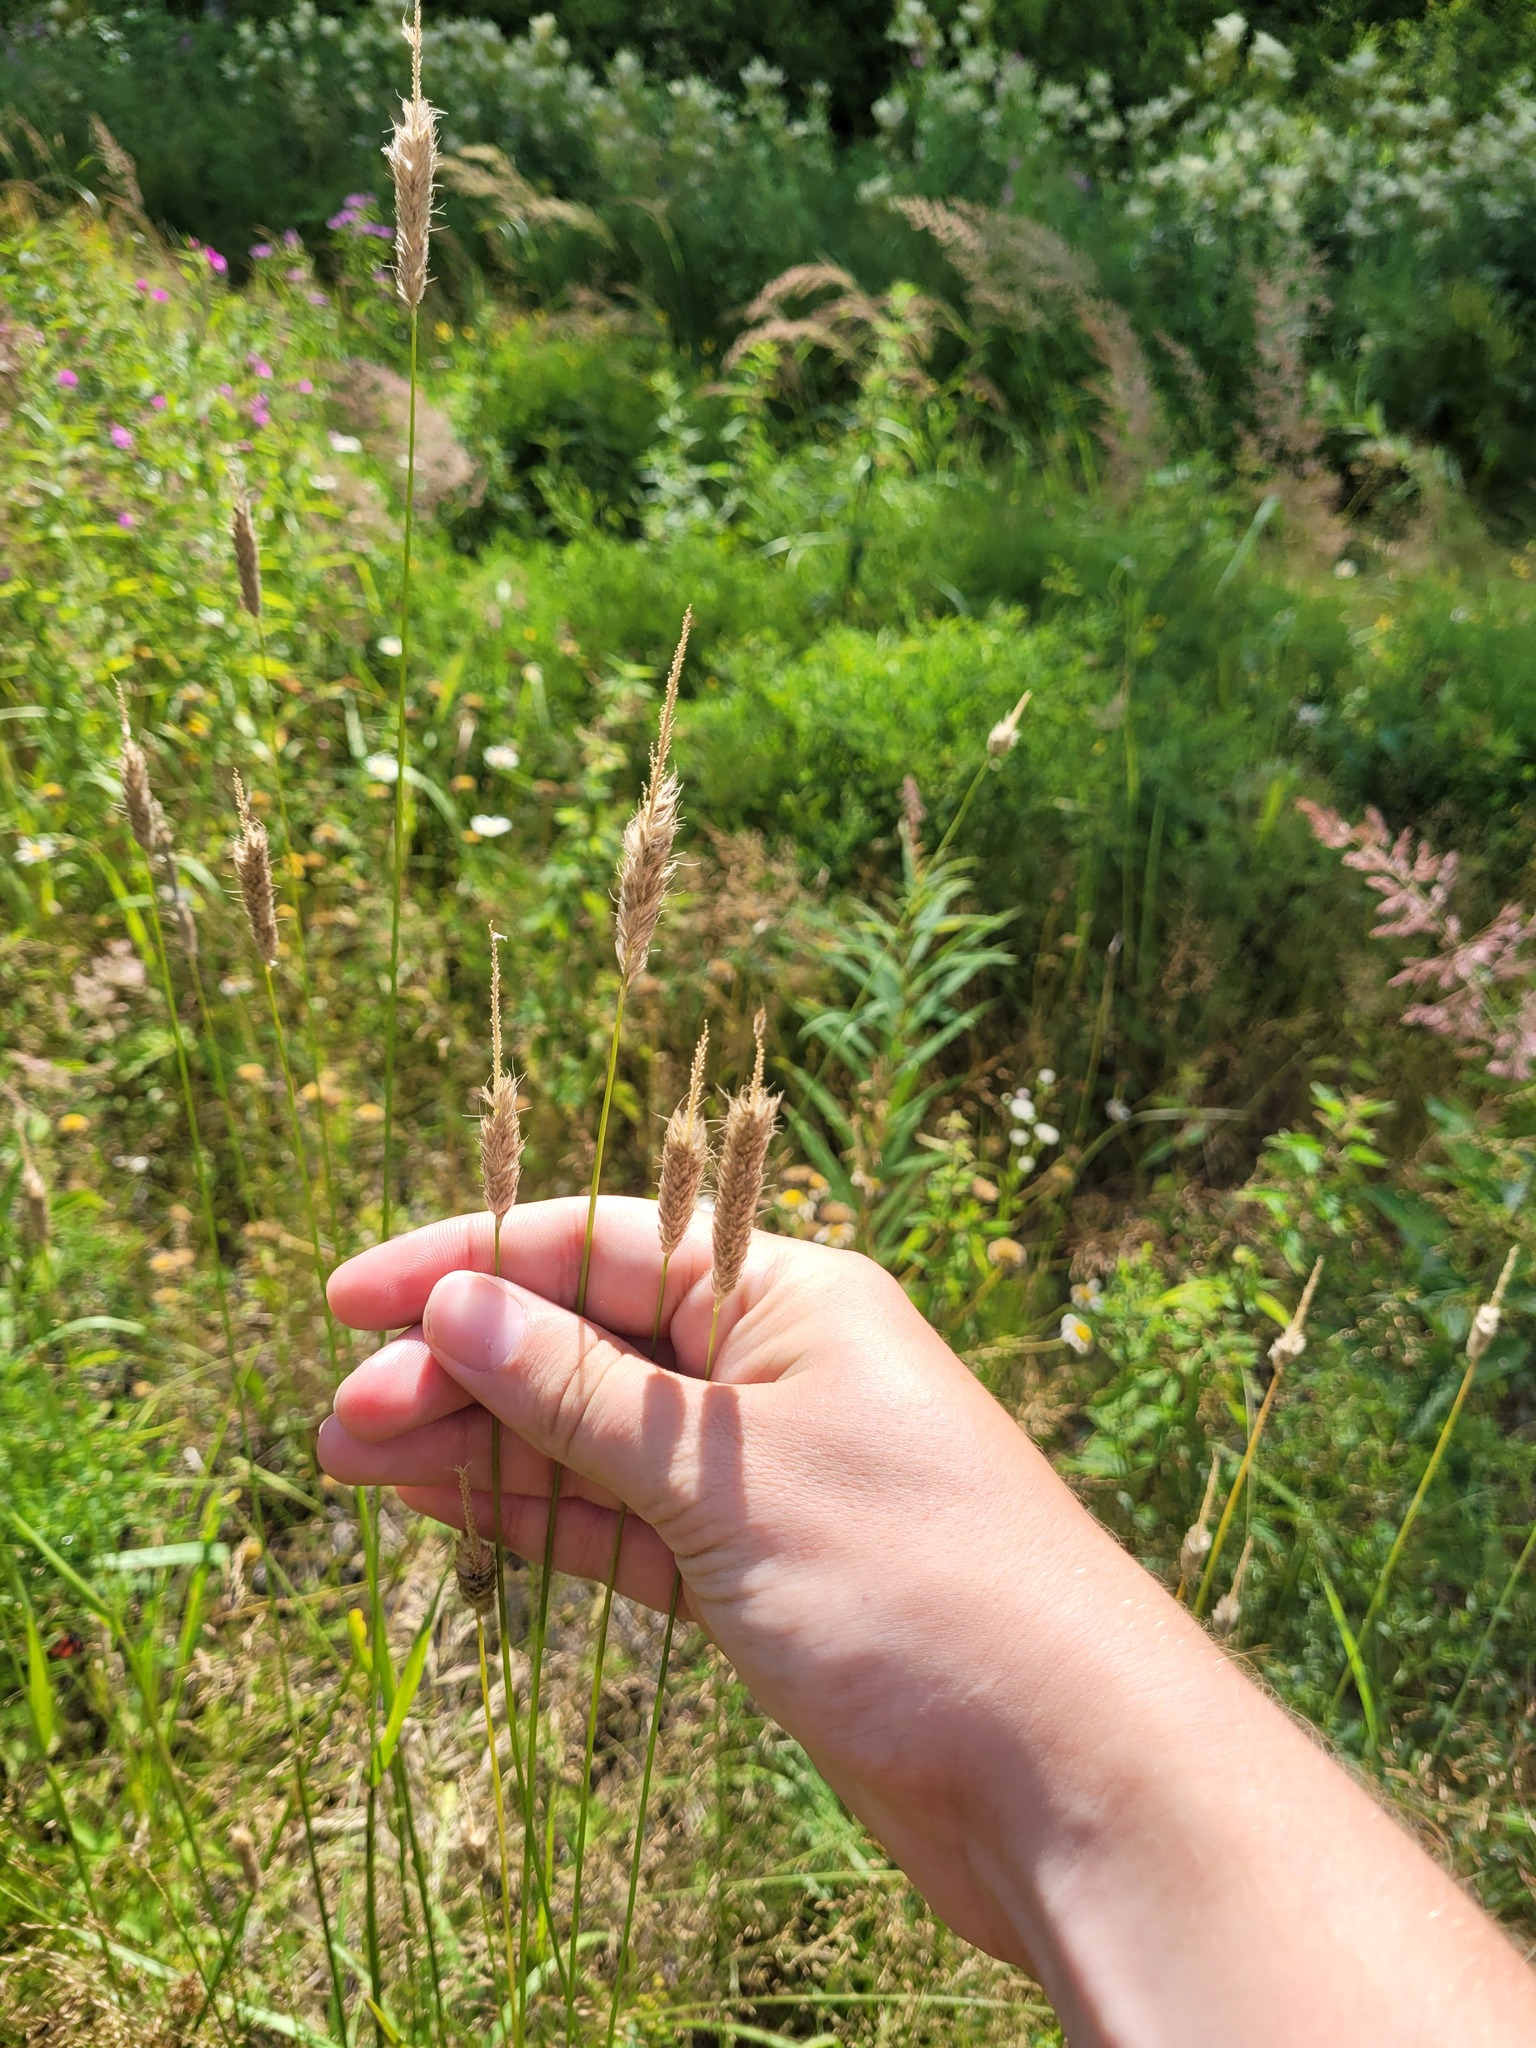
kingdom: Plantae
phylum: Tracheophyta
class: Liliopsida
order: Poales
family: Poaceae
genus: Alopecurus
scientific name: Alopecurus pratensis
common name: Meadow foxtail
